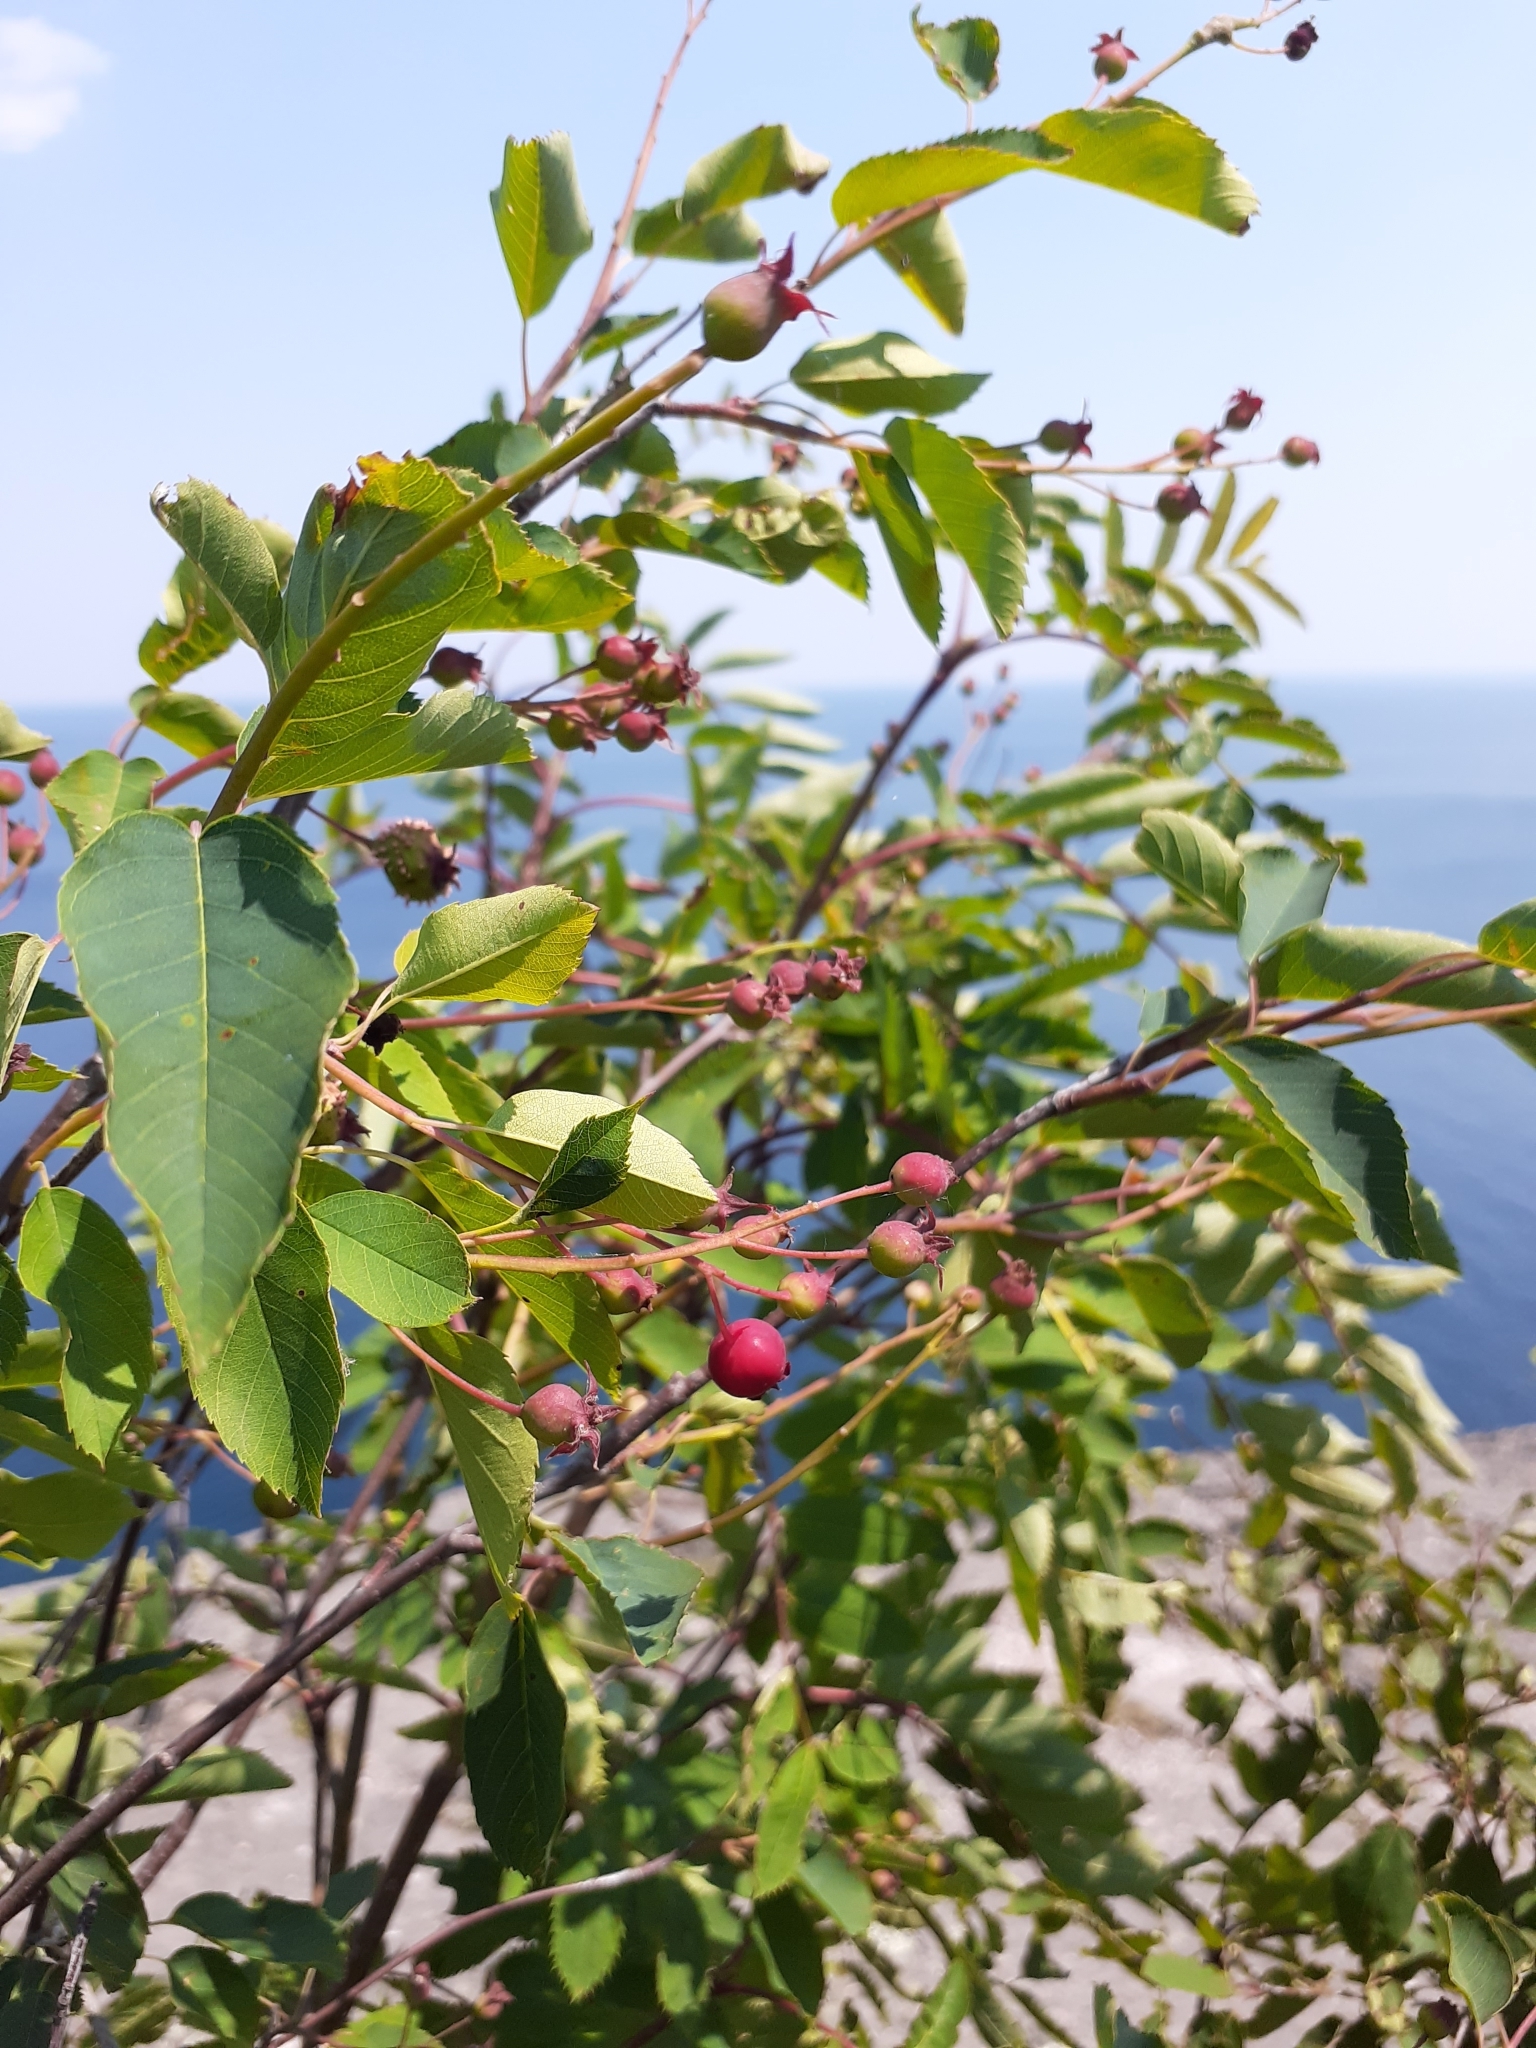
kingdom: Plantae
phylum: Tracheophyta
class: Magnoliopsida
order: Rosales
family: Rosaceae
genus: Amelanchier
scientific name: Amelanchier arborea
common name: Downy serviceberry
